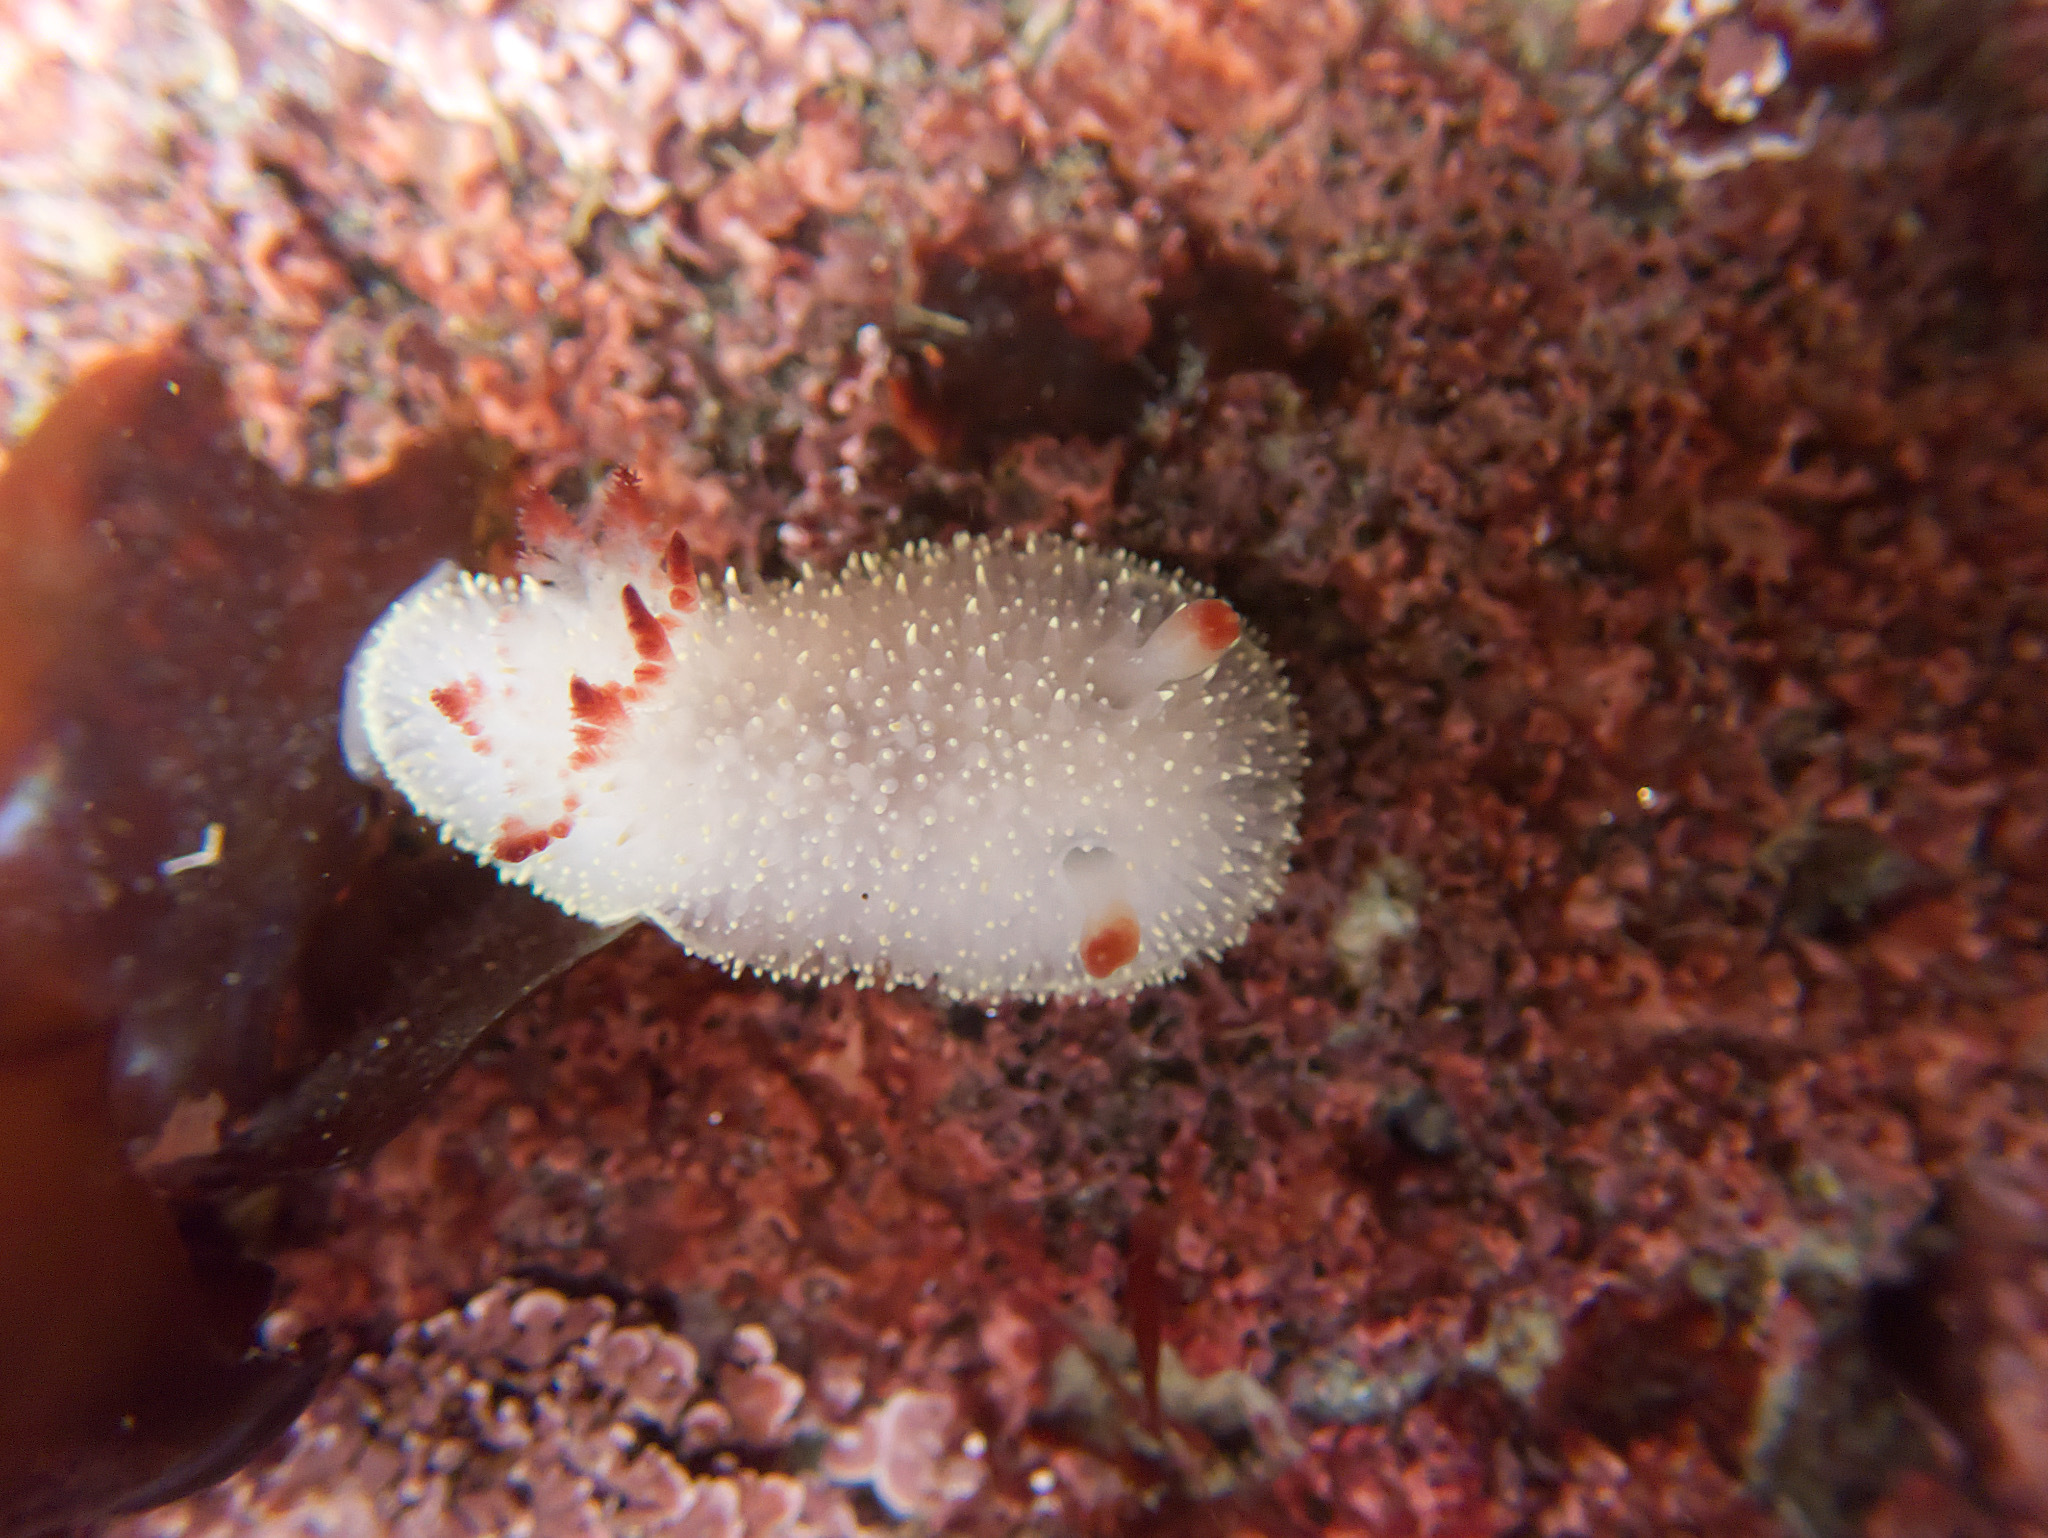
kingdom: Animalia
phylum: Mollusca
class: Gastropoda
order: Nudibranchia
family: Onchidorididae
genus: Acanthodoris
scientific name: Acanthodoris nanaimoensis
